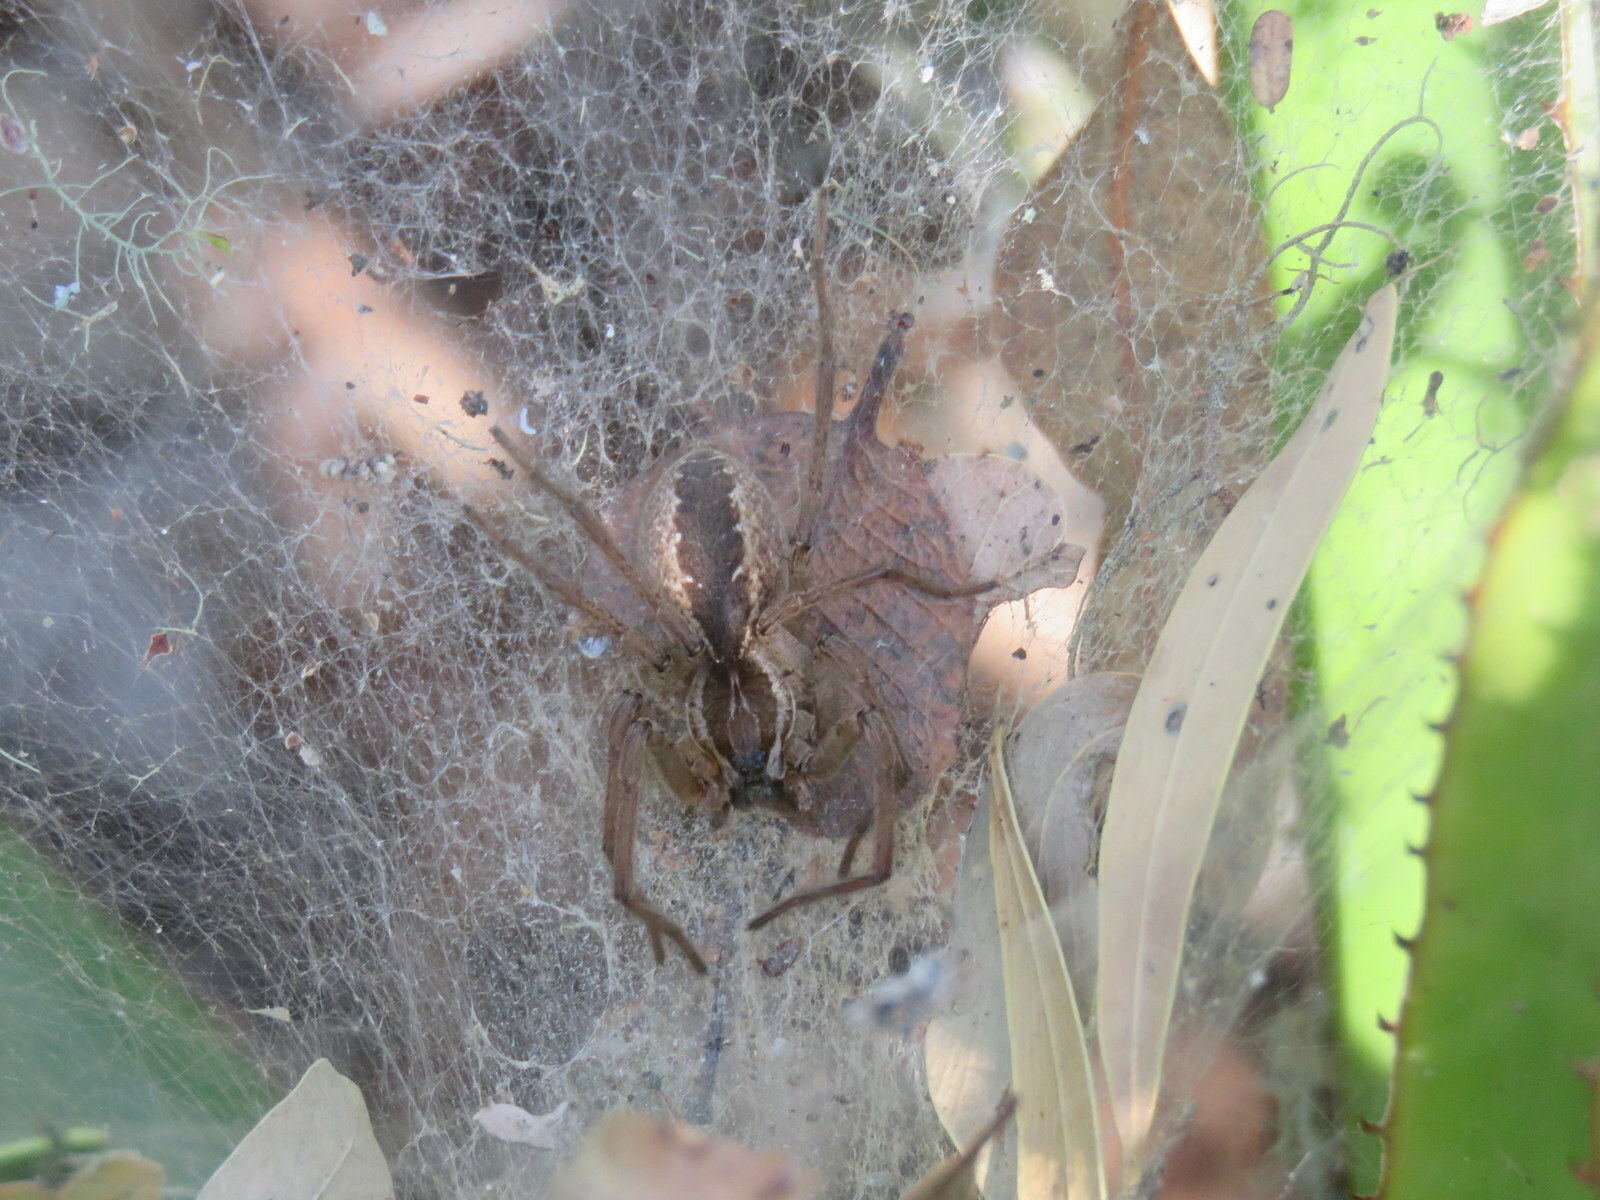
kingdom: Animalia
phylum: Arthropoda
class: Arachnida
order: Araneae
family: Lycosidae
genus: Aglaoctenus
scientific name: Aglaoctenus lagotis
